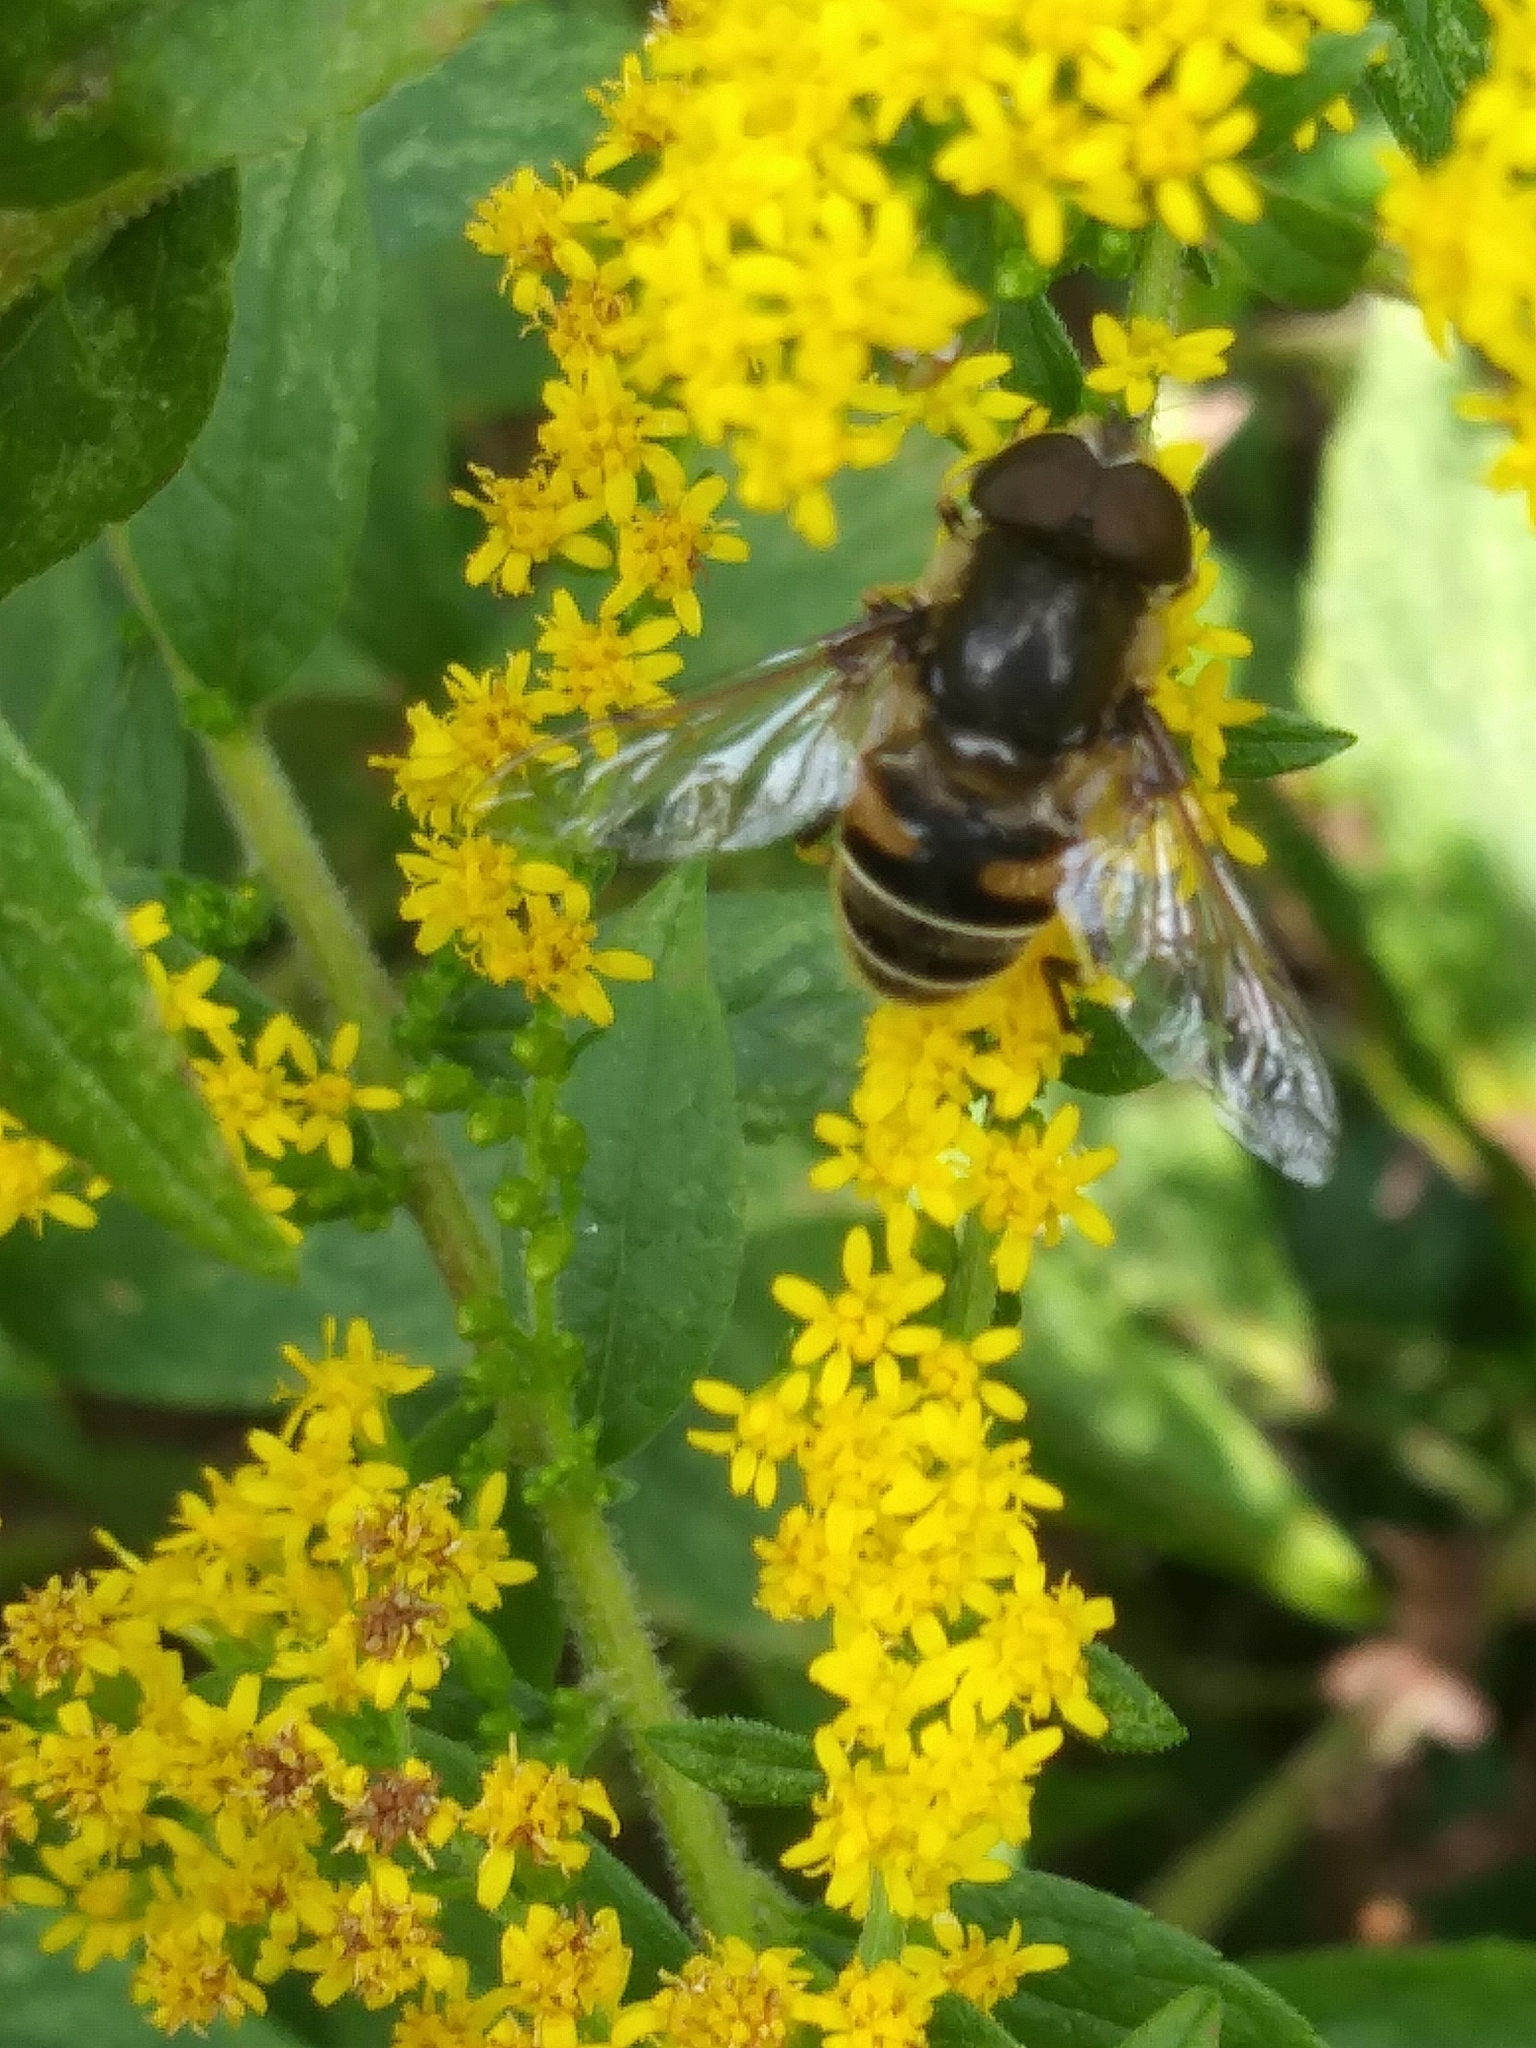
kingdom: Animalia
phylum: Arthropoda
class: Insecta
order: Diptera
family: Syrphidae
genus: Eristalis
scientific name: Eristalis dimidiata
